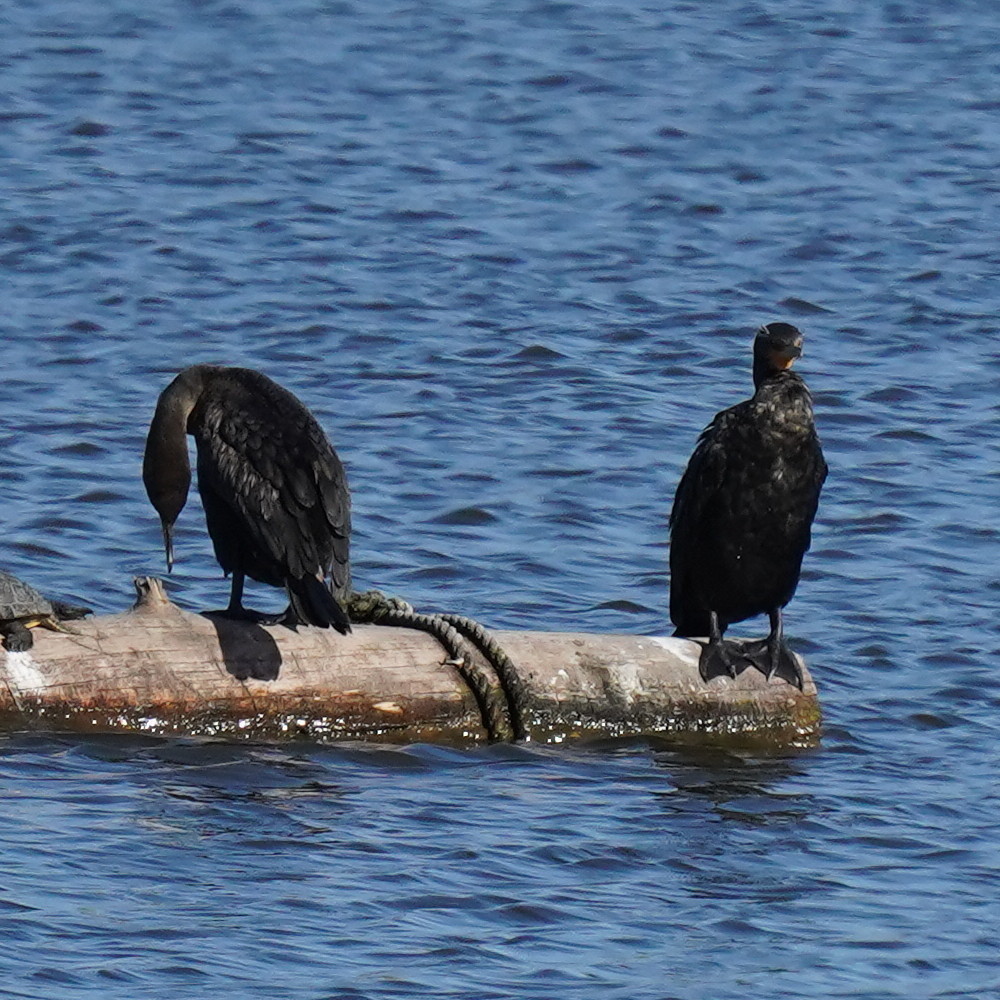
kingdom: Animalia
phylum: Chordata
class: Aves
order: Suliformes
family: Phalacrocoracidae
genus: Phalacrocorax
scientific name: Phalacrocorax auritus
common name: Double-crested cormorant
